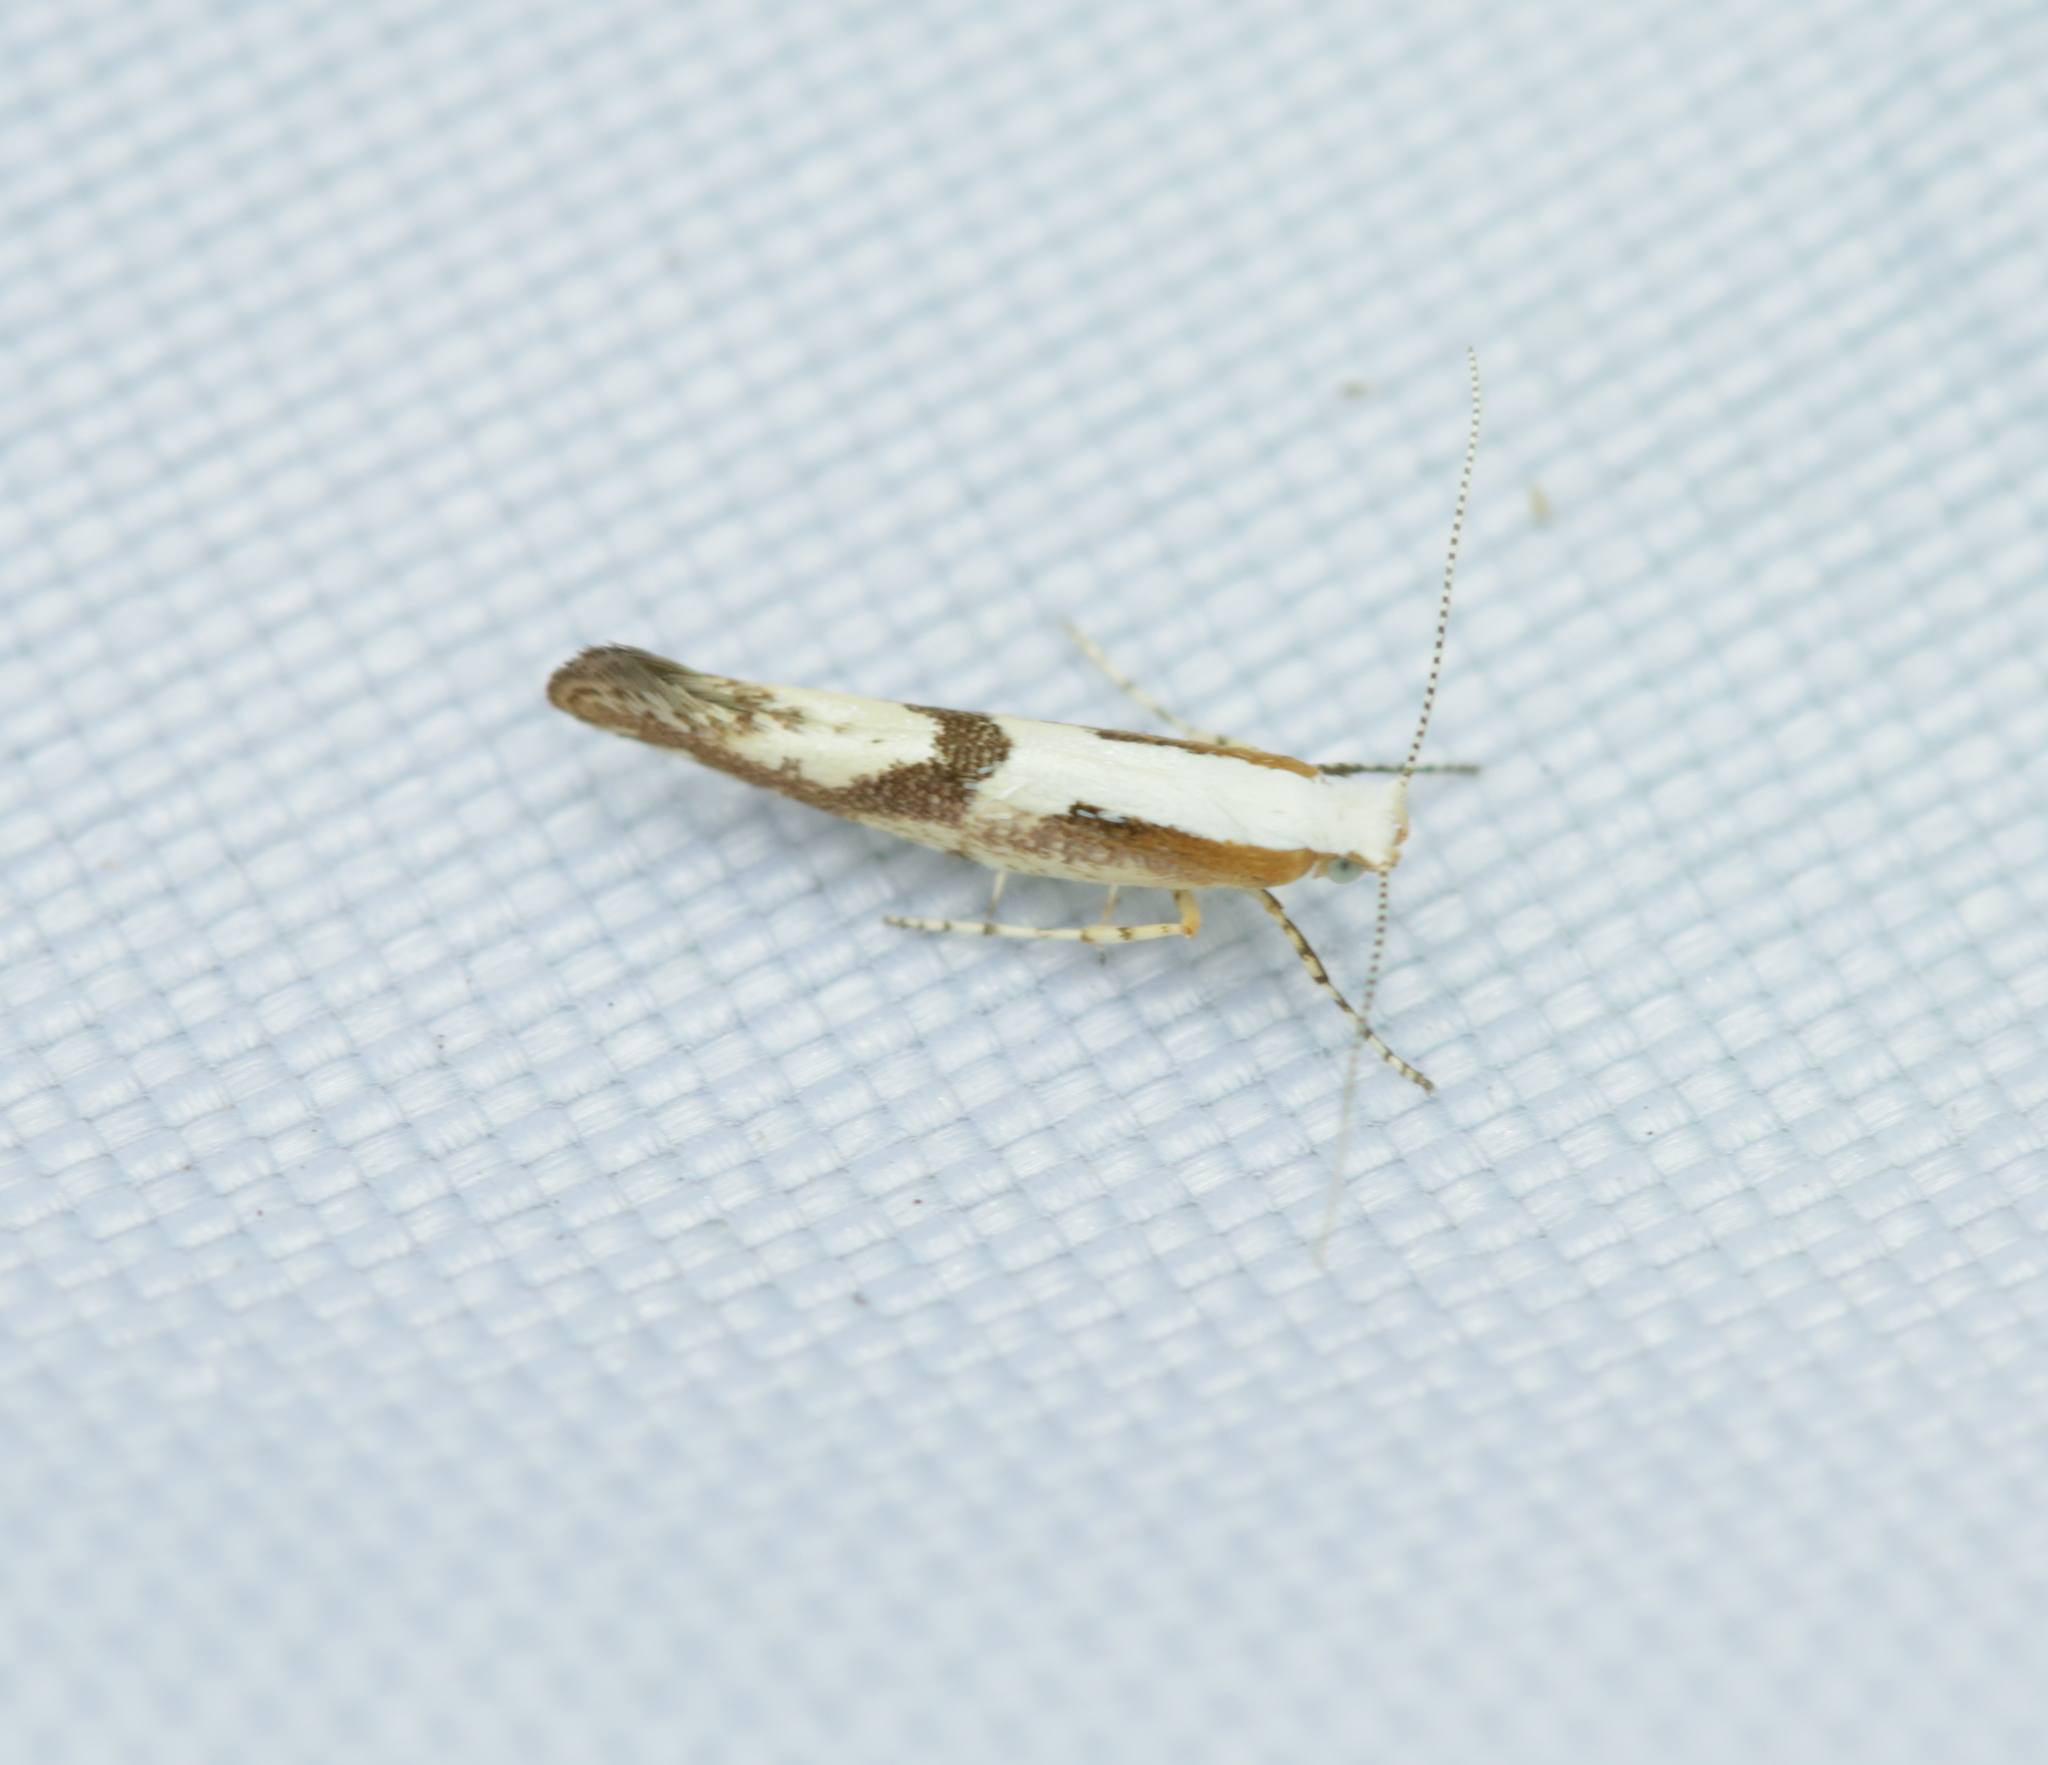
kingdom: Animalia
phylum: Arthropoda
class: Insecta
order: Lepidoptera
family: Argyresthiidae
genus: Argyresthia
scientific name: Argyresthia bonnetella
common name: Hawthorn argent
